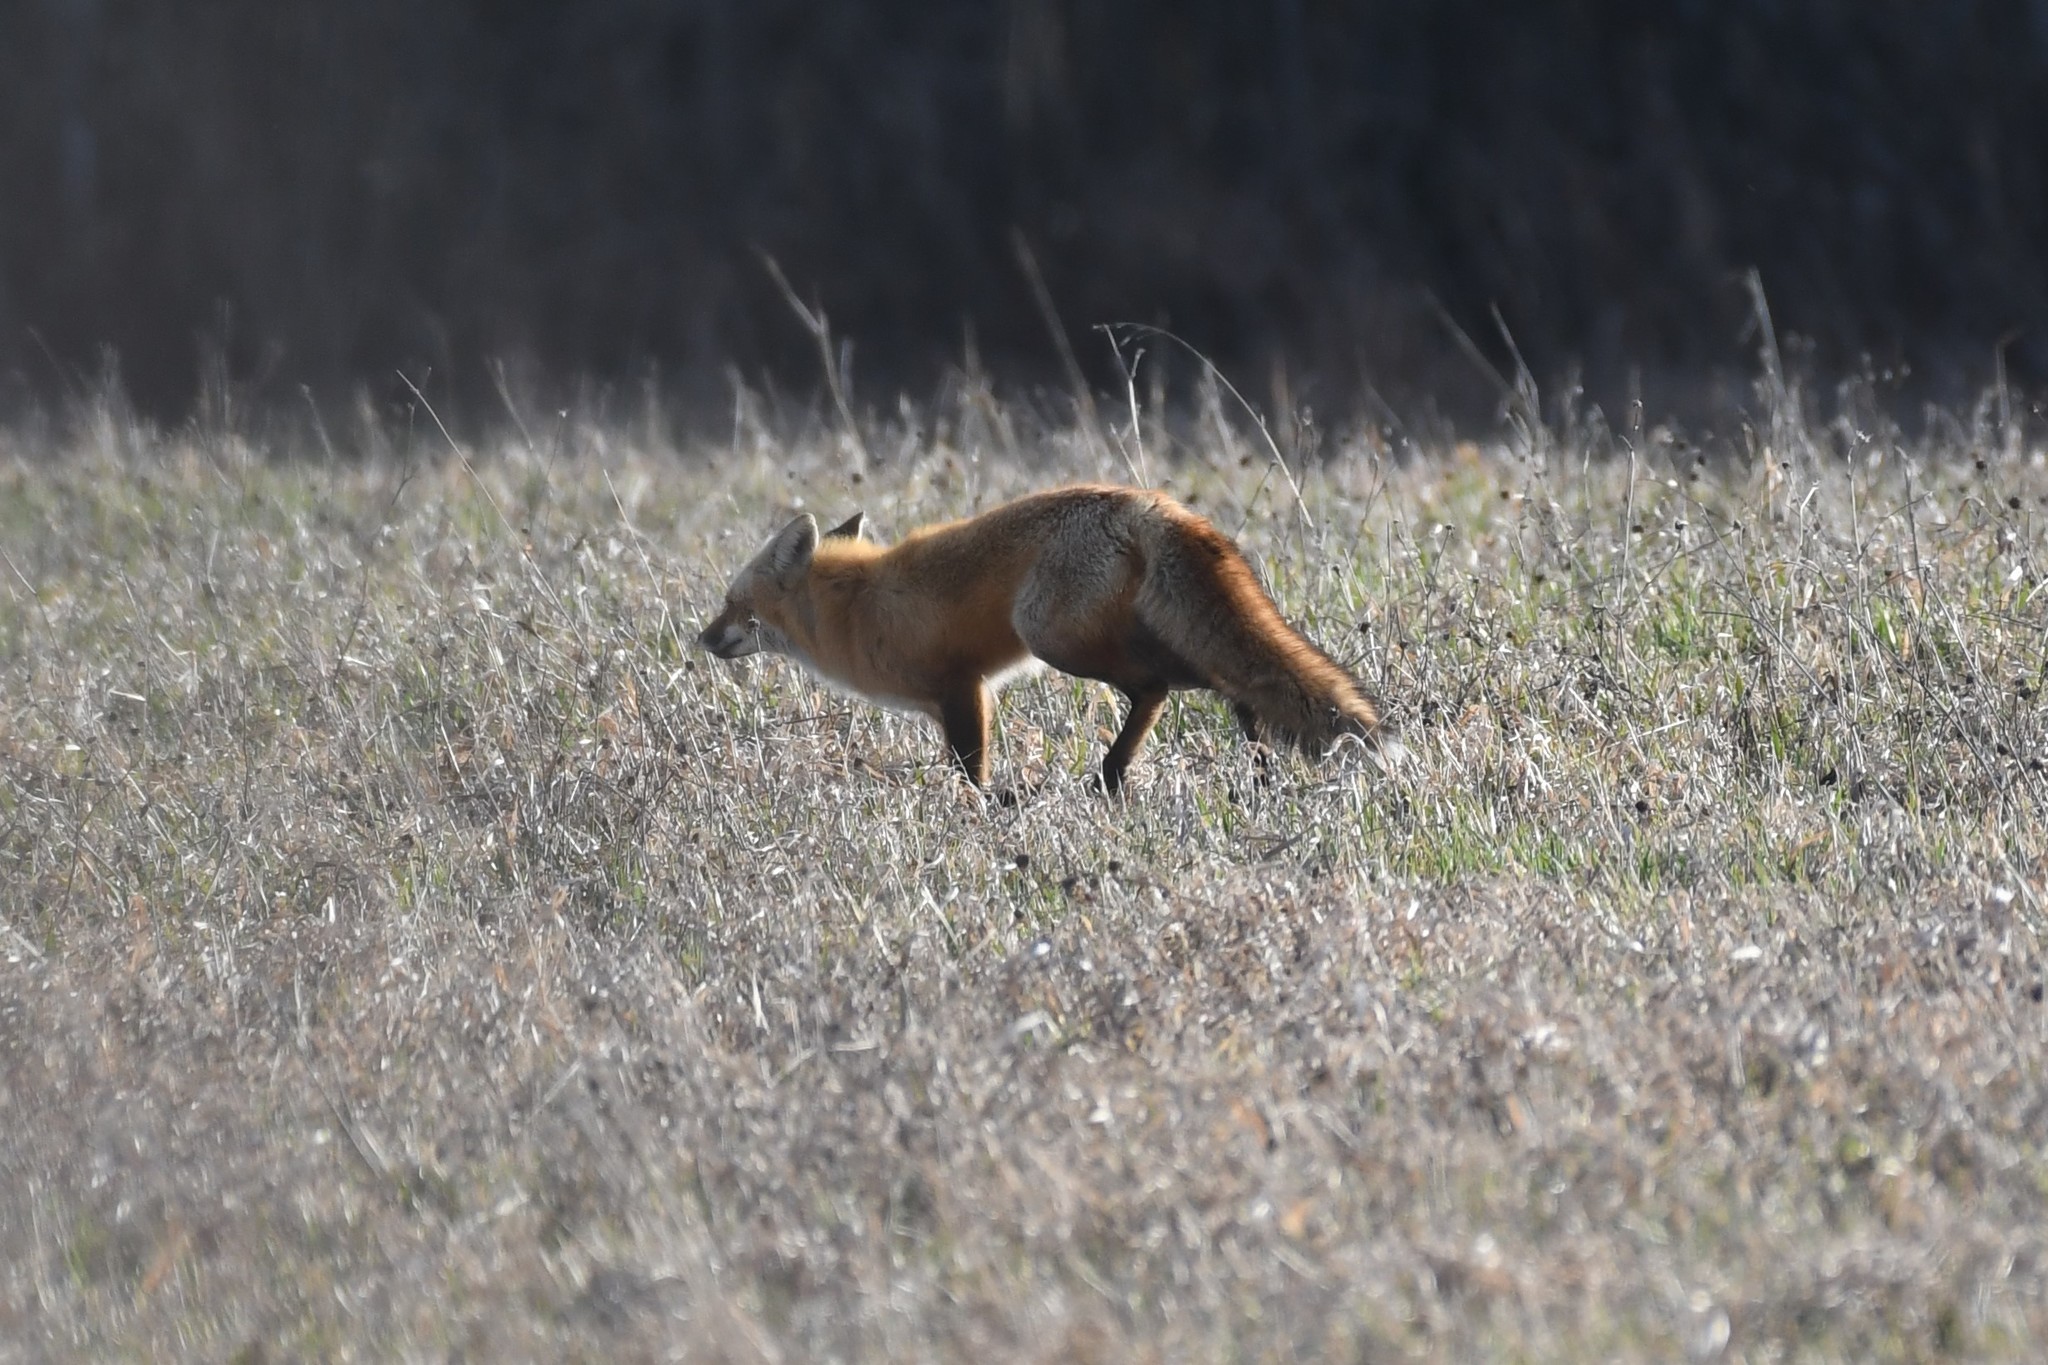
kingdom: Animalia
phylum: Chordata
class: Mammalia
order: Carnivora
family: Canidae
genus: Vulpes
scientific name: Vulpes vulpes
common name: Red fox
